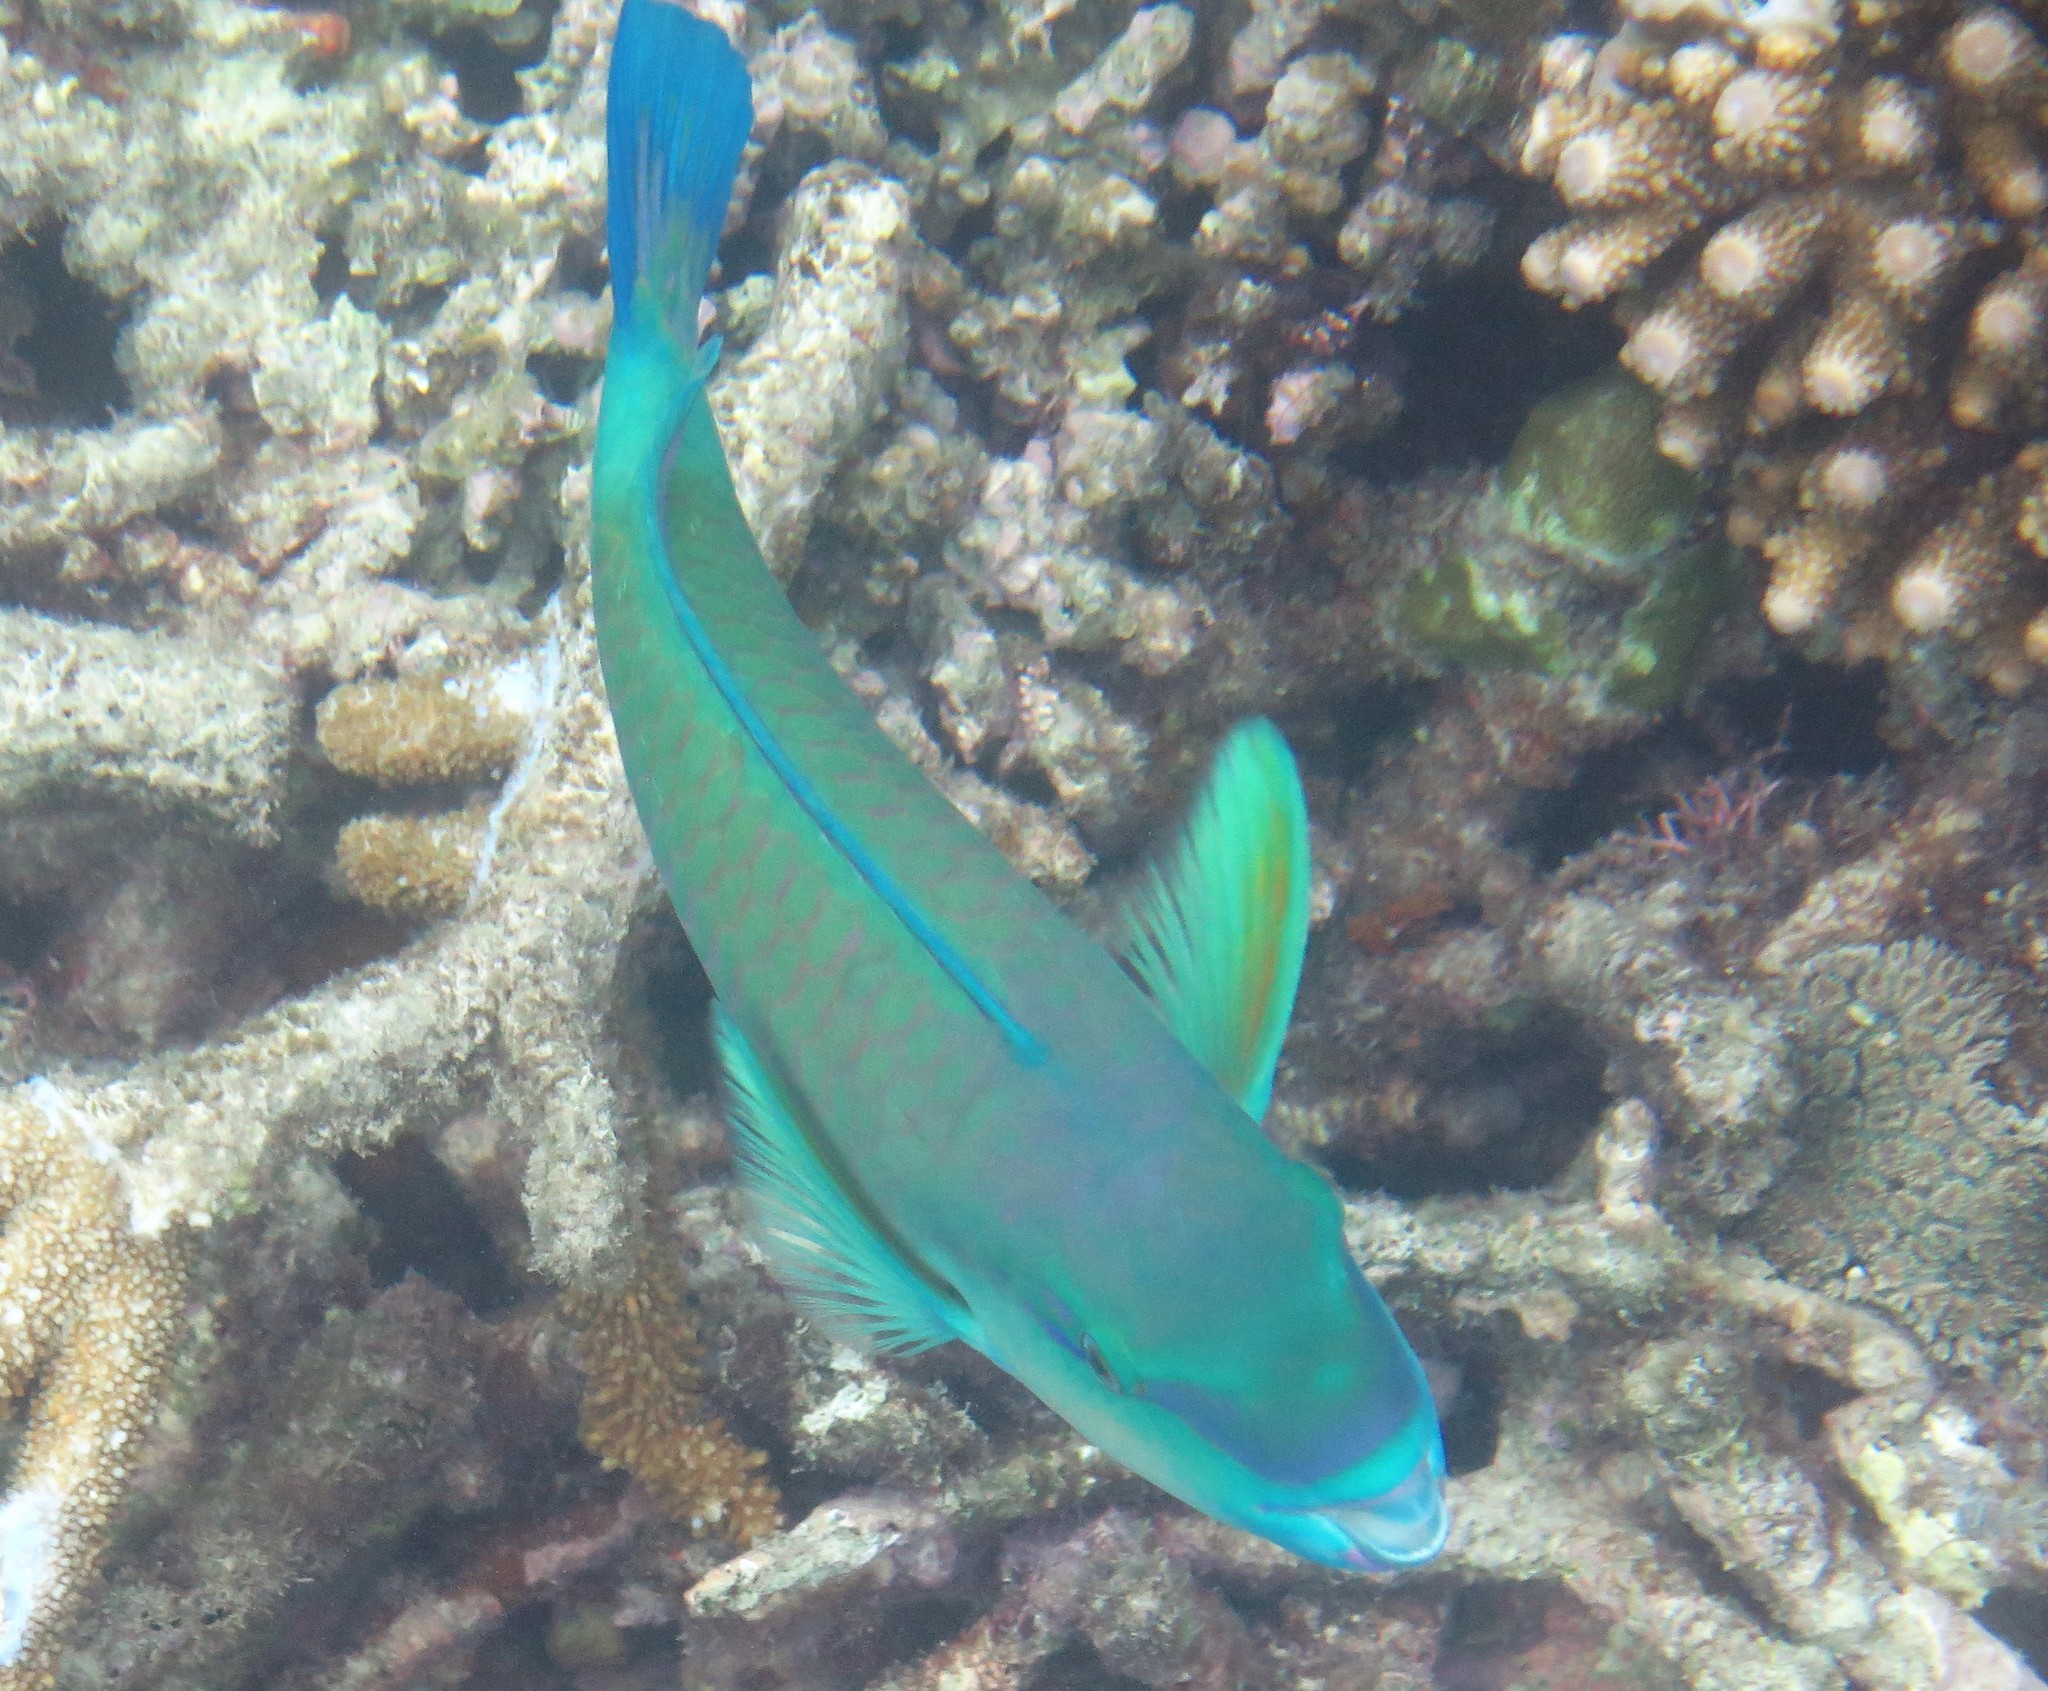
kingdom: Animalia
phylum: Chordata
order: Perciformes
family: Scaridae
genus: Chlorurus
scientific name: Chlorurus spilurus
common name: Bullethead parrotfish
